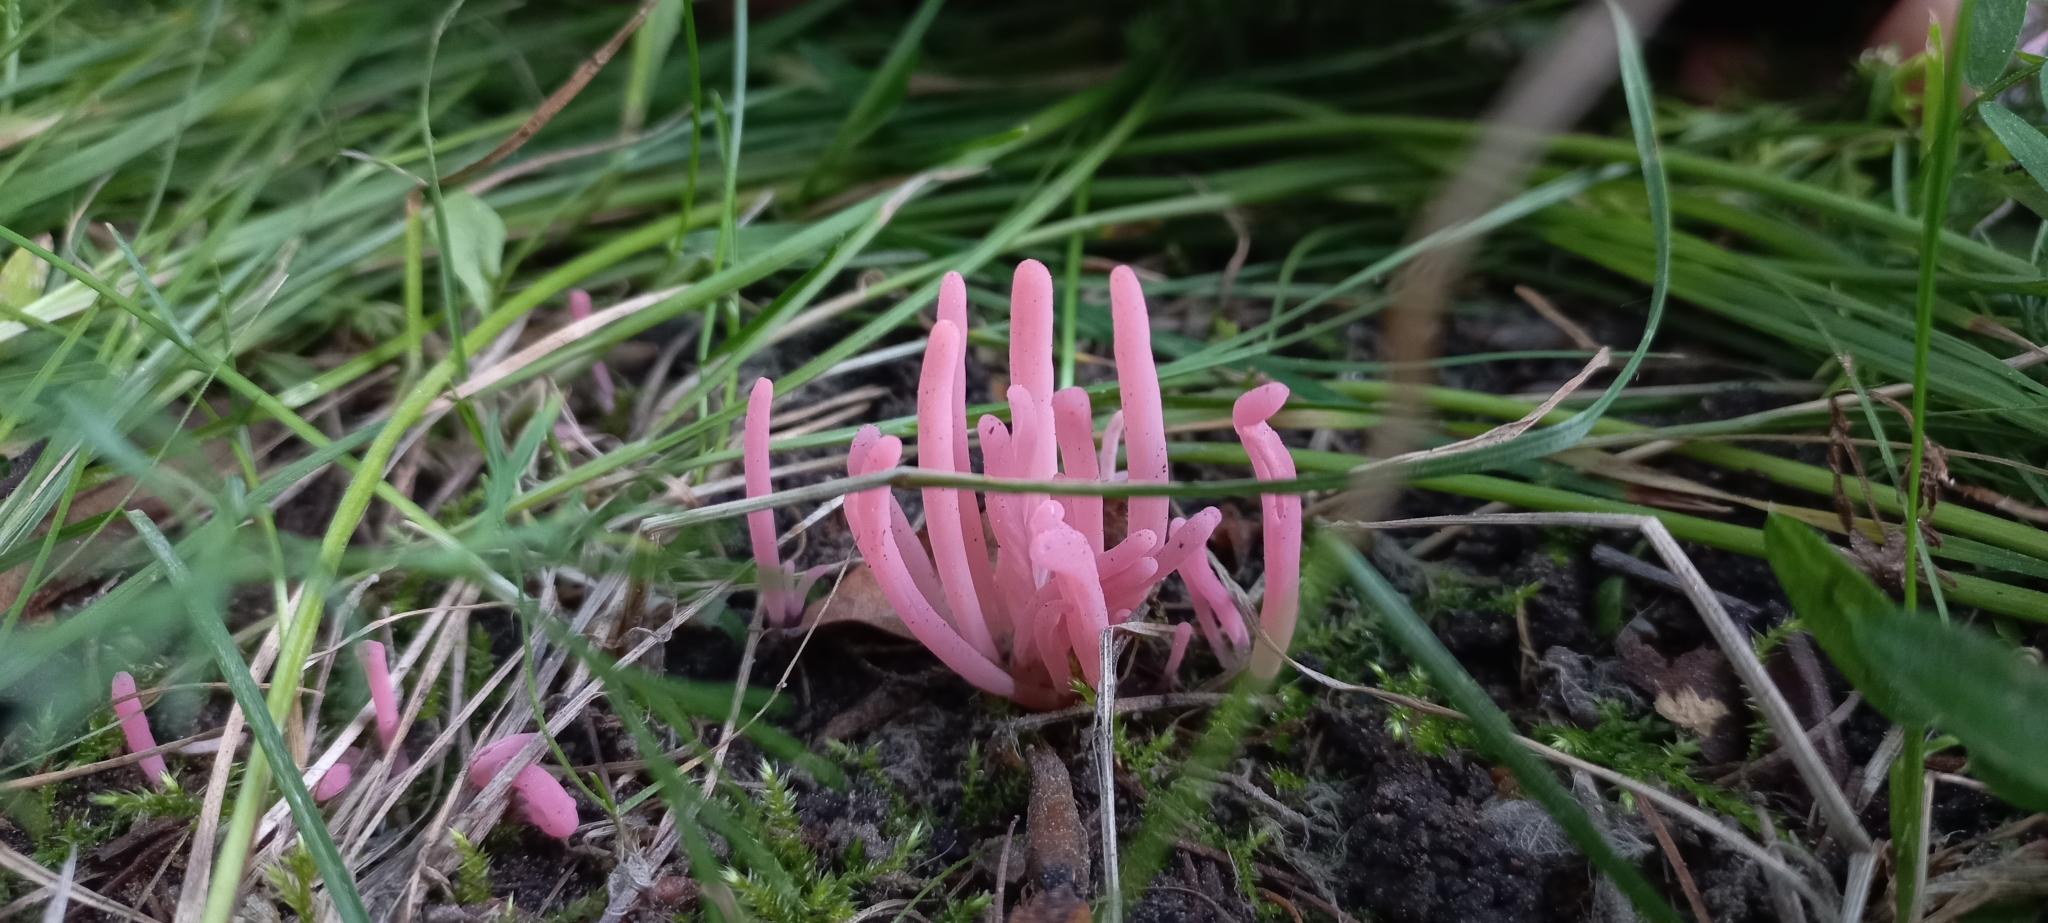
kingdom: Fungi
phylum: Basidiomycota
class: Agaricomycetes
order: Agaricales
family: Clavariaceae
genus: Clavaria
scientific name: Clavaria rosea
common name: Rose spindles
